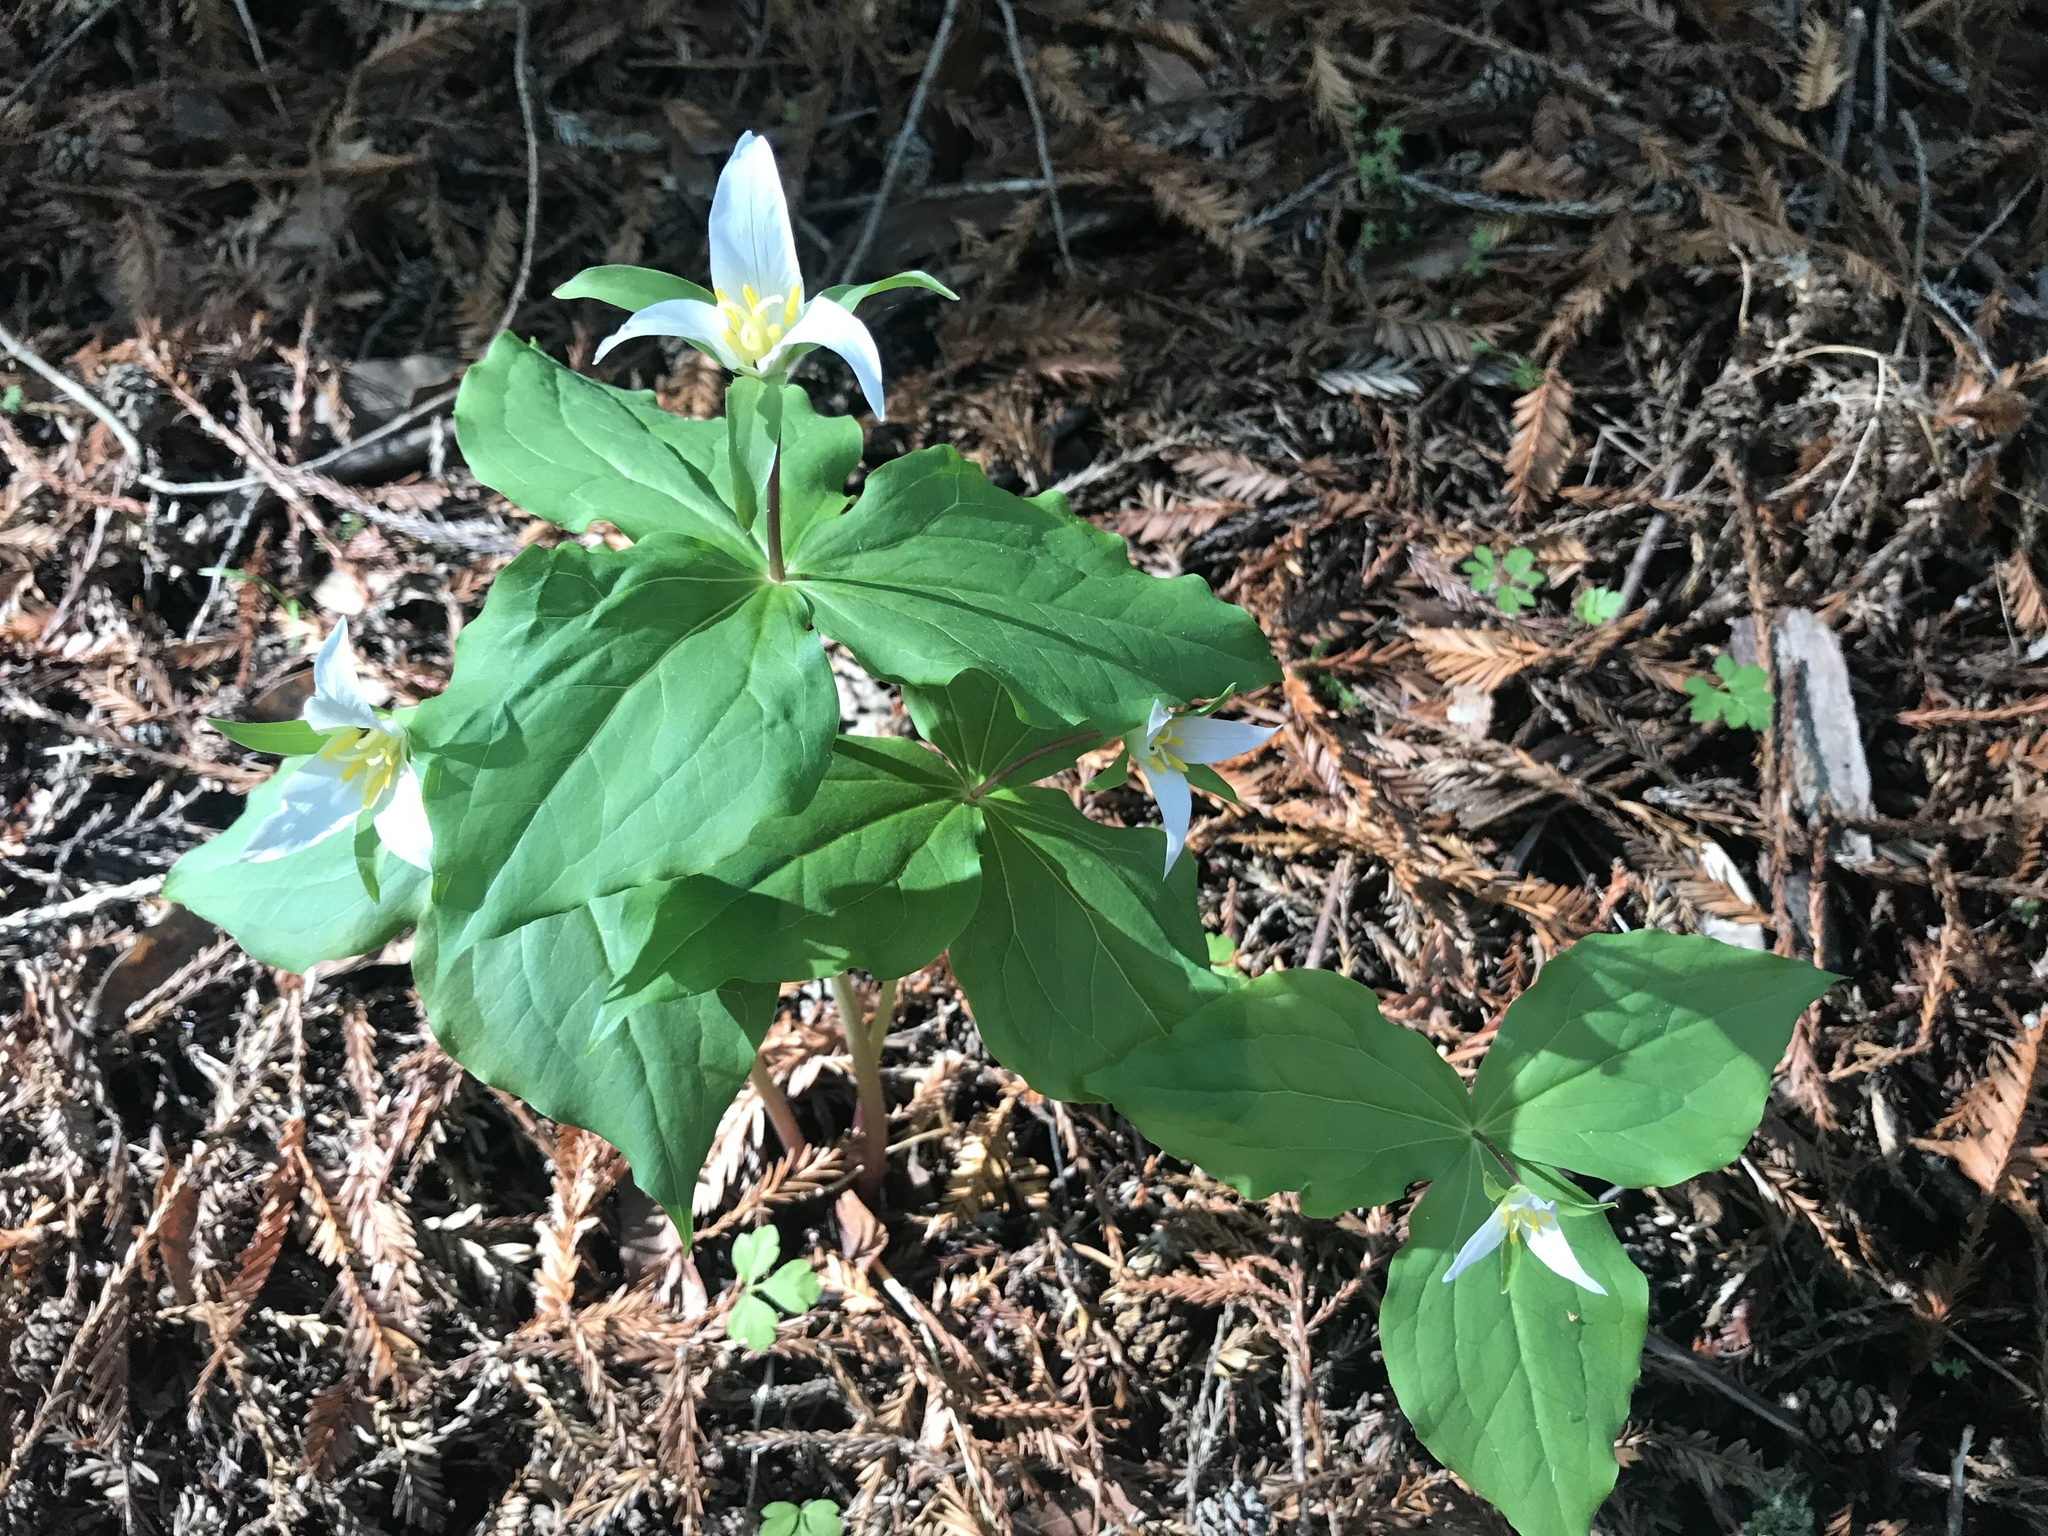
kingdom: Plantae
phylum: Tracheophyta
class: Liliopsida
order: Liliales
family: Melanthiaceae
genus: Trillium
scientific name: Trillium ovatum
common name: Pacific trillium
